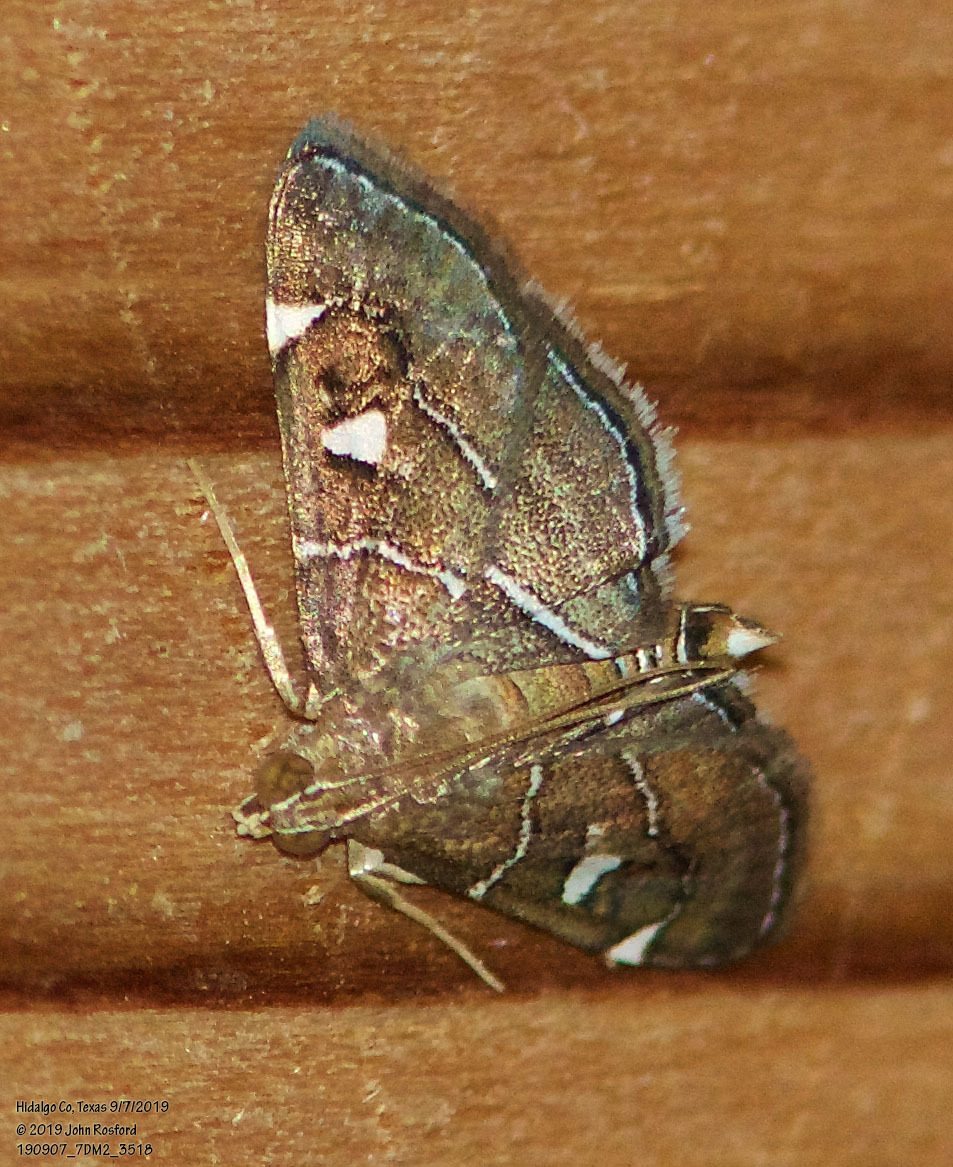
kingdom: Animalia
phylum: Arthropoda
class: Insecta
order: Lepidoptera
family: Crambidae
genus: Lamprosema
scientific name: Lamprosema victoriae
